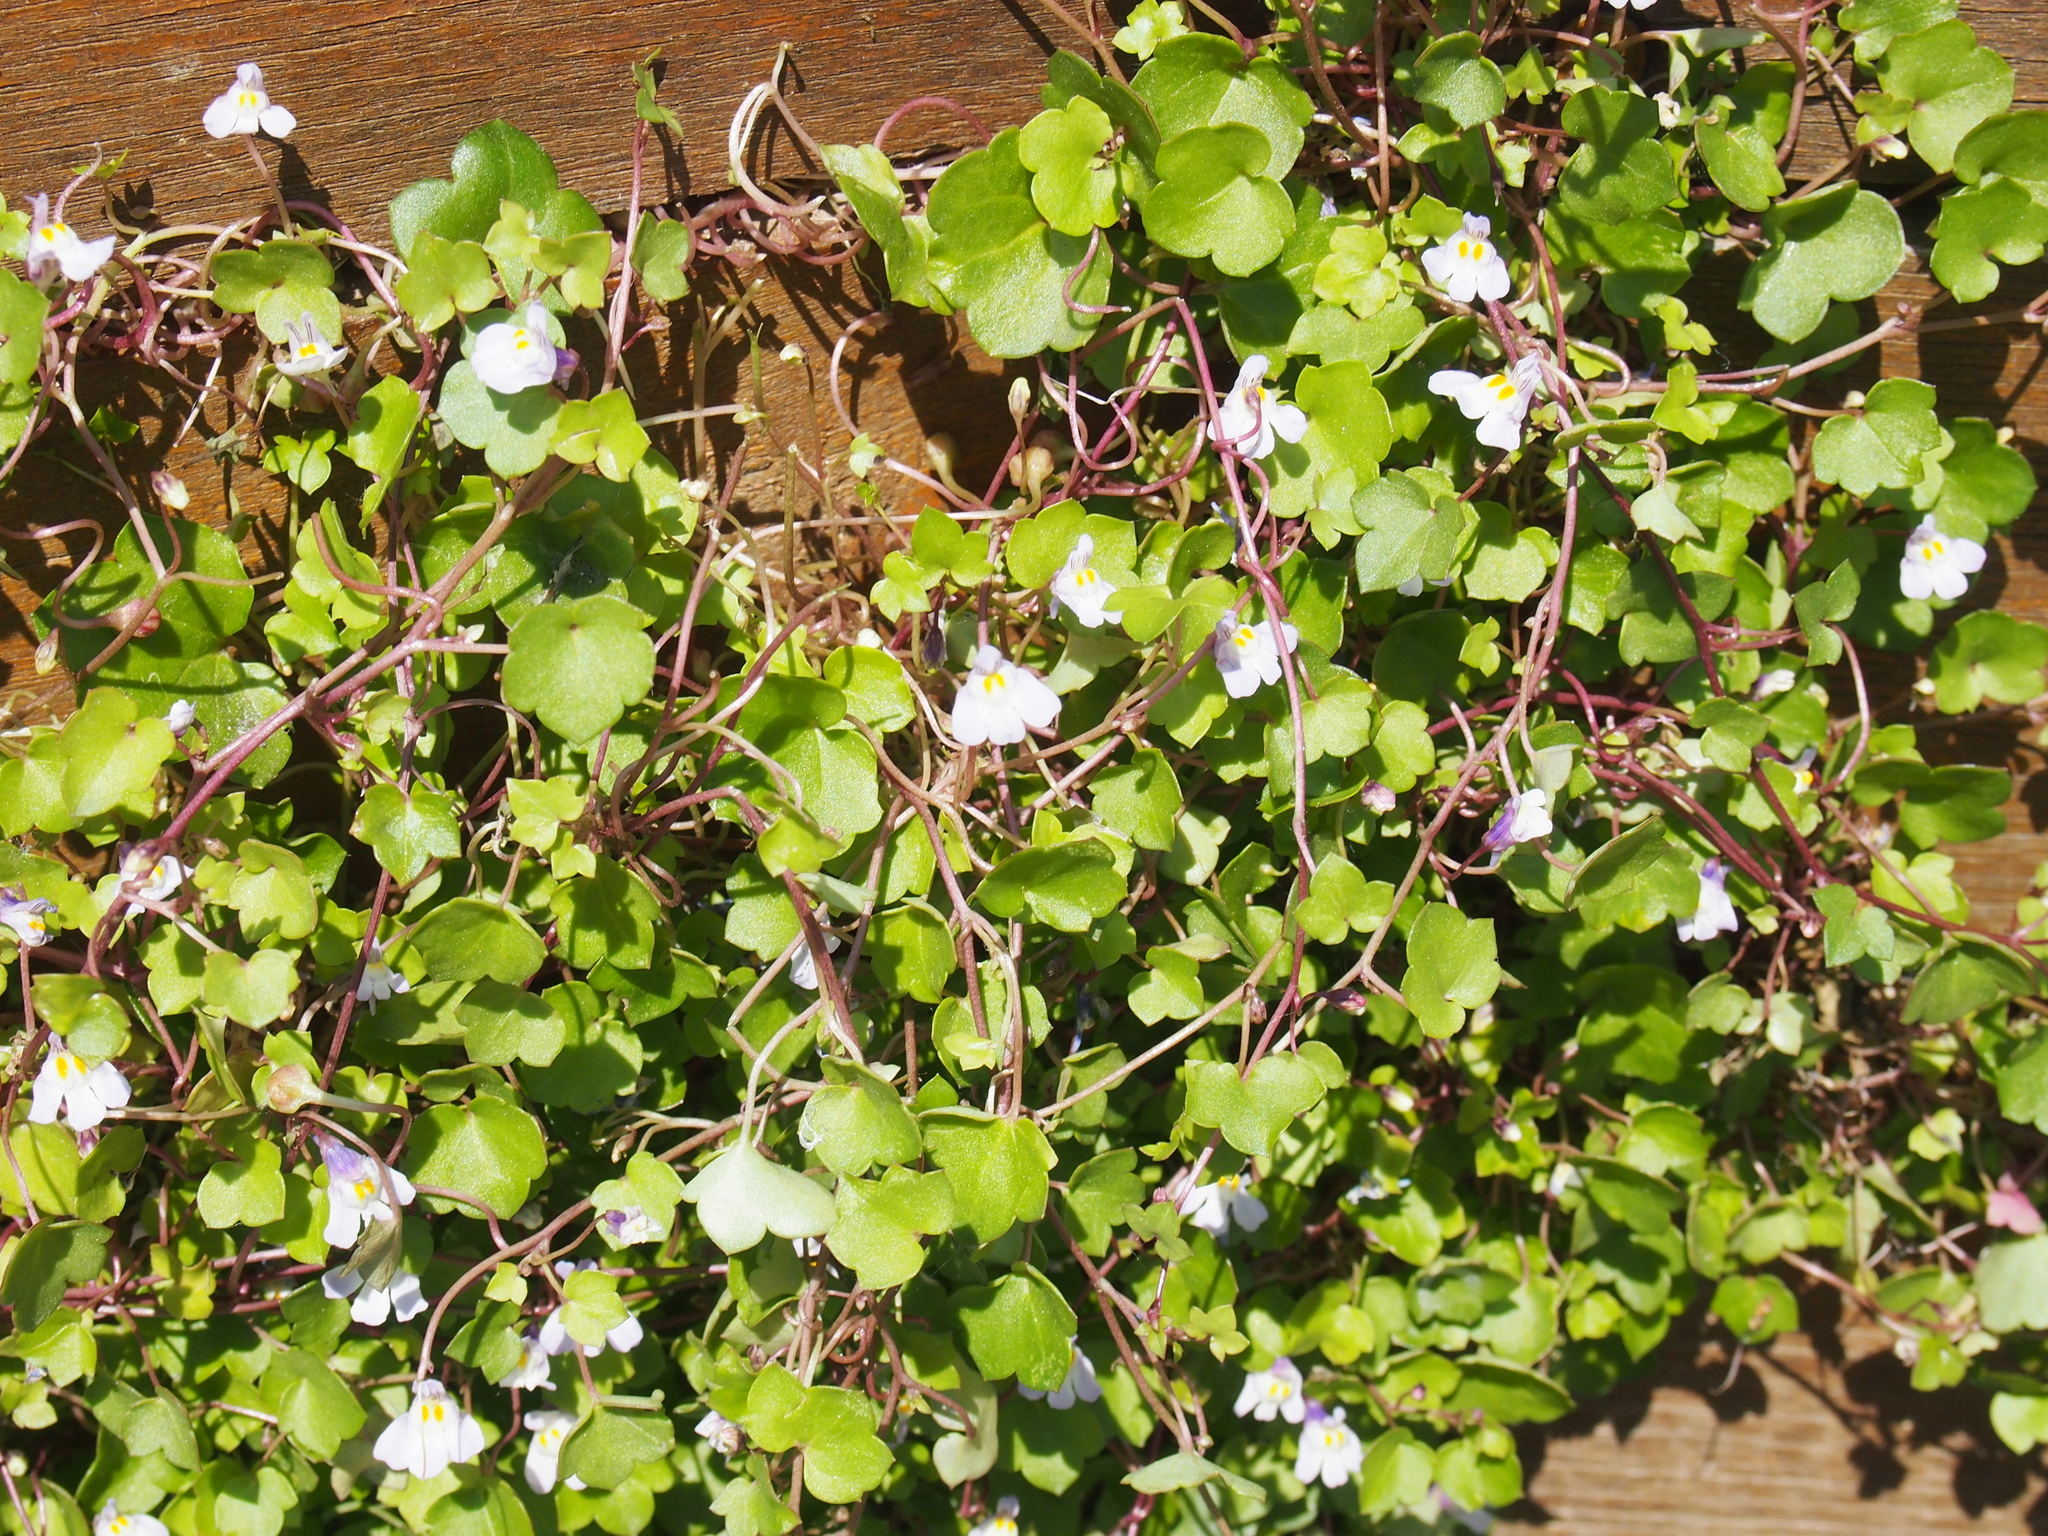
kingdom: Plantae
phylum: Tracheophyta
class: Magnoliopsida
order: Lamiales
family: Plantaginaceae
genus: Cymbalaria
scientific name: Cymbalaria muralis
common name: Ivy-leaved toadflax
